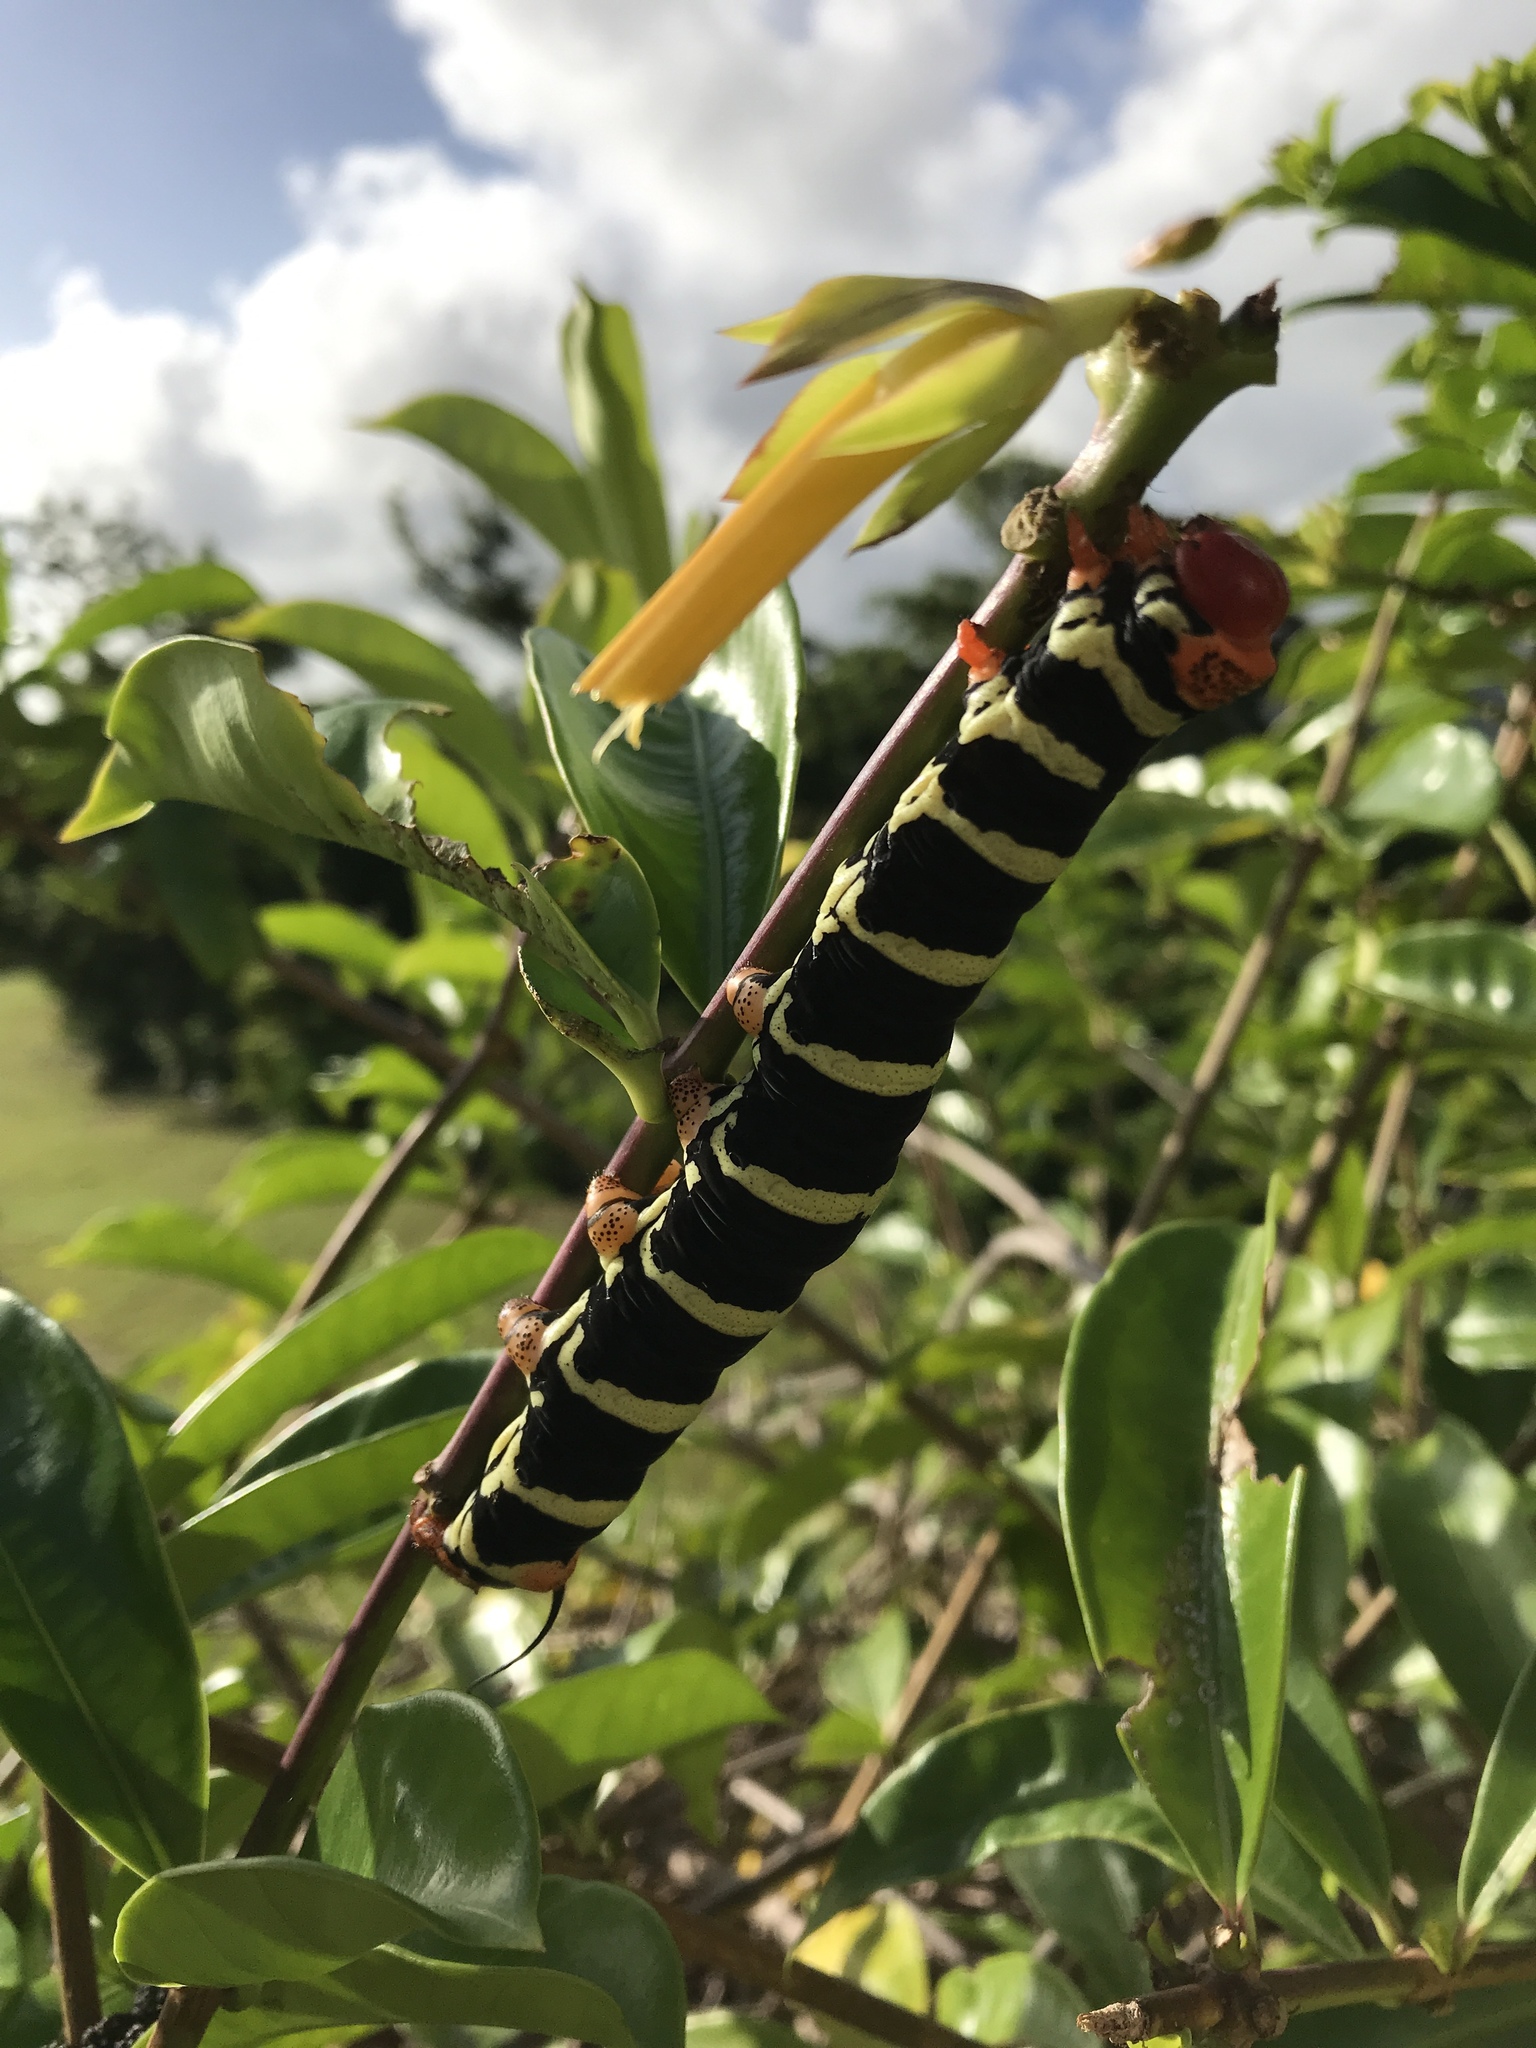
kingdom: Animalia
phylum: Arthropoda
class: Insecta
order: Lepidoptera
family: Sphingidae
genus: Pseudosphinx
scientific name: Pseudosphinx tetrio
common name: Tetrio sphinx
